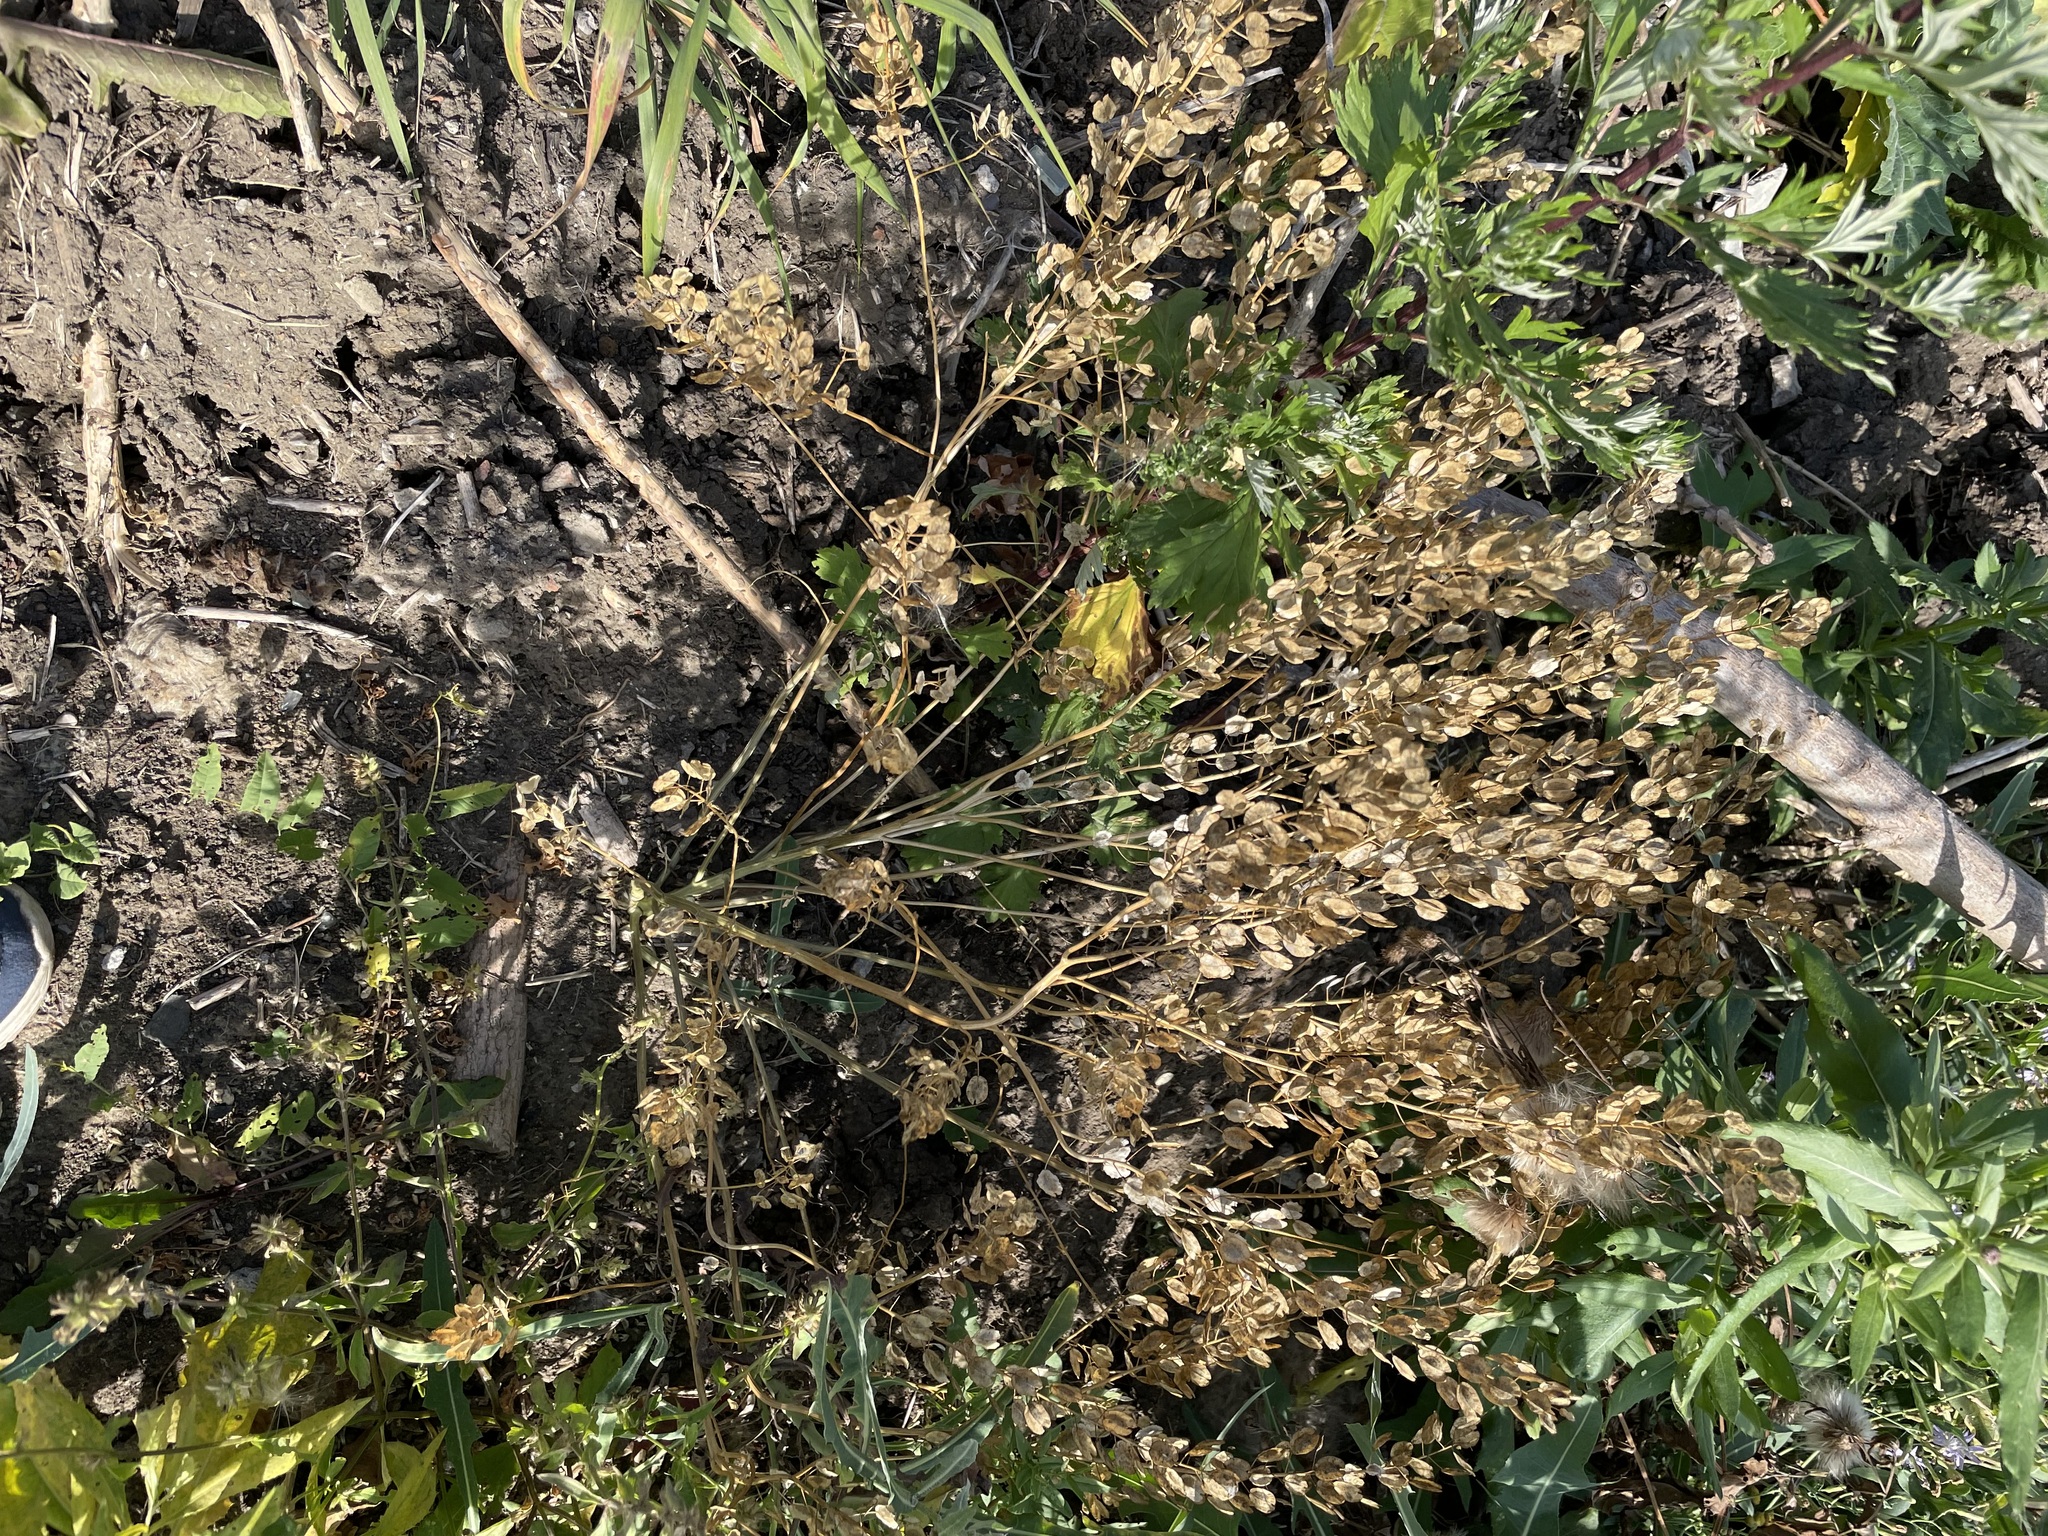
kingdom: Plantae
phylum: Tracheophyta
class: Magnoliopsida
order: Brassicales
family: Brassicaceae
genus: Thlaspi
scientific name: Thlaspi arvense
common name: Field pennycress
